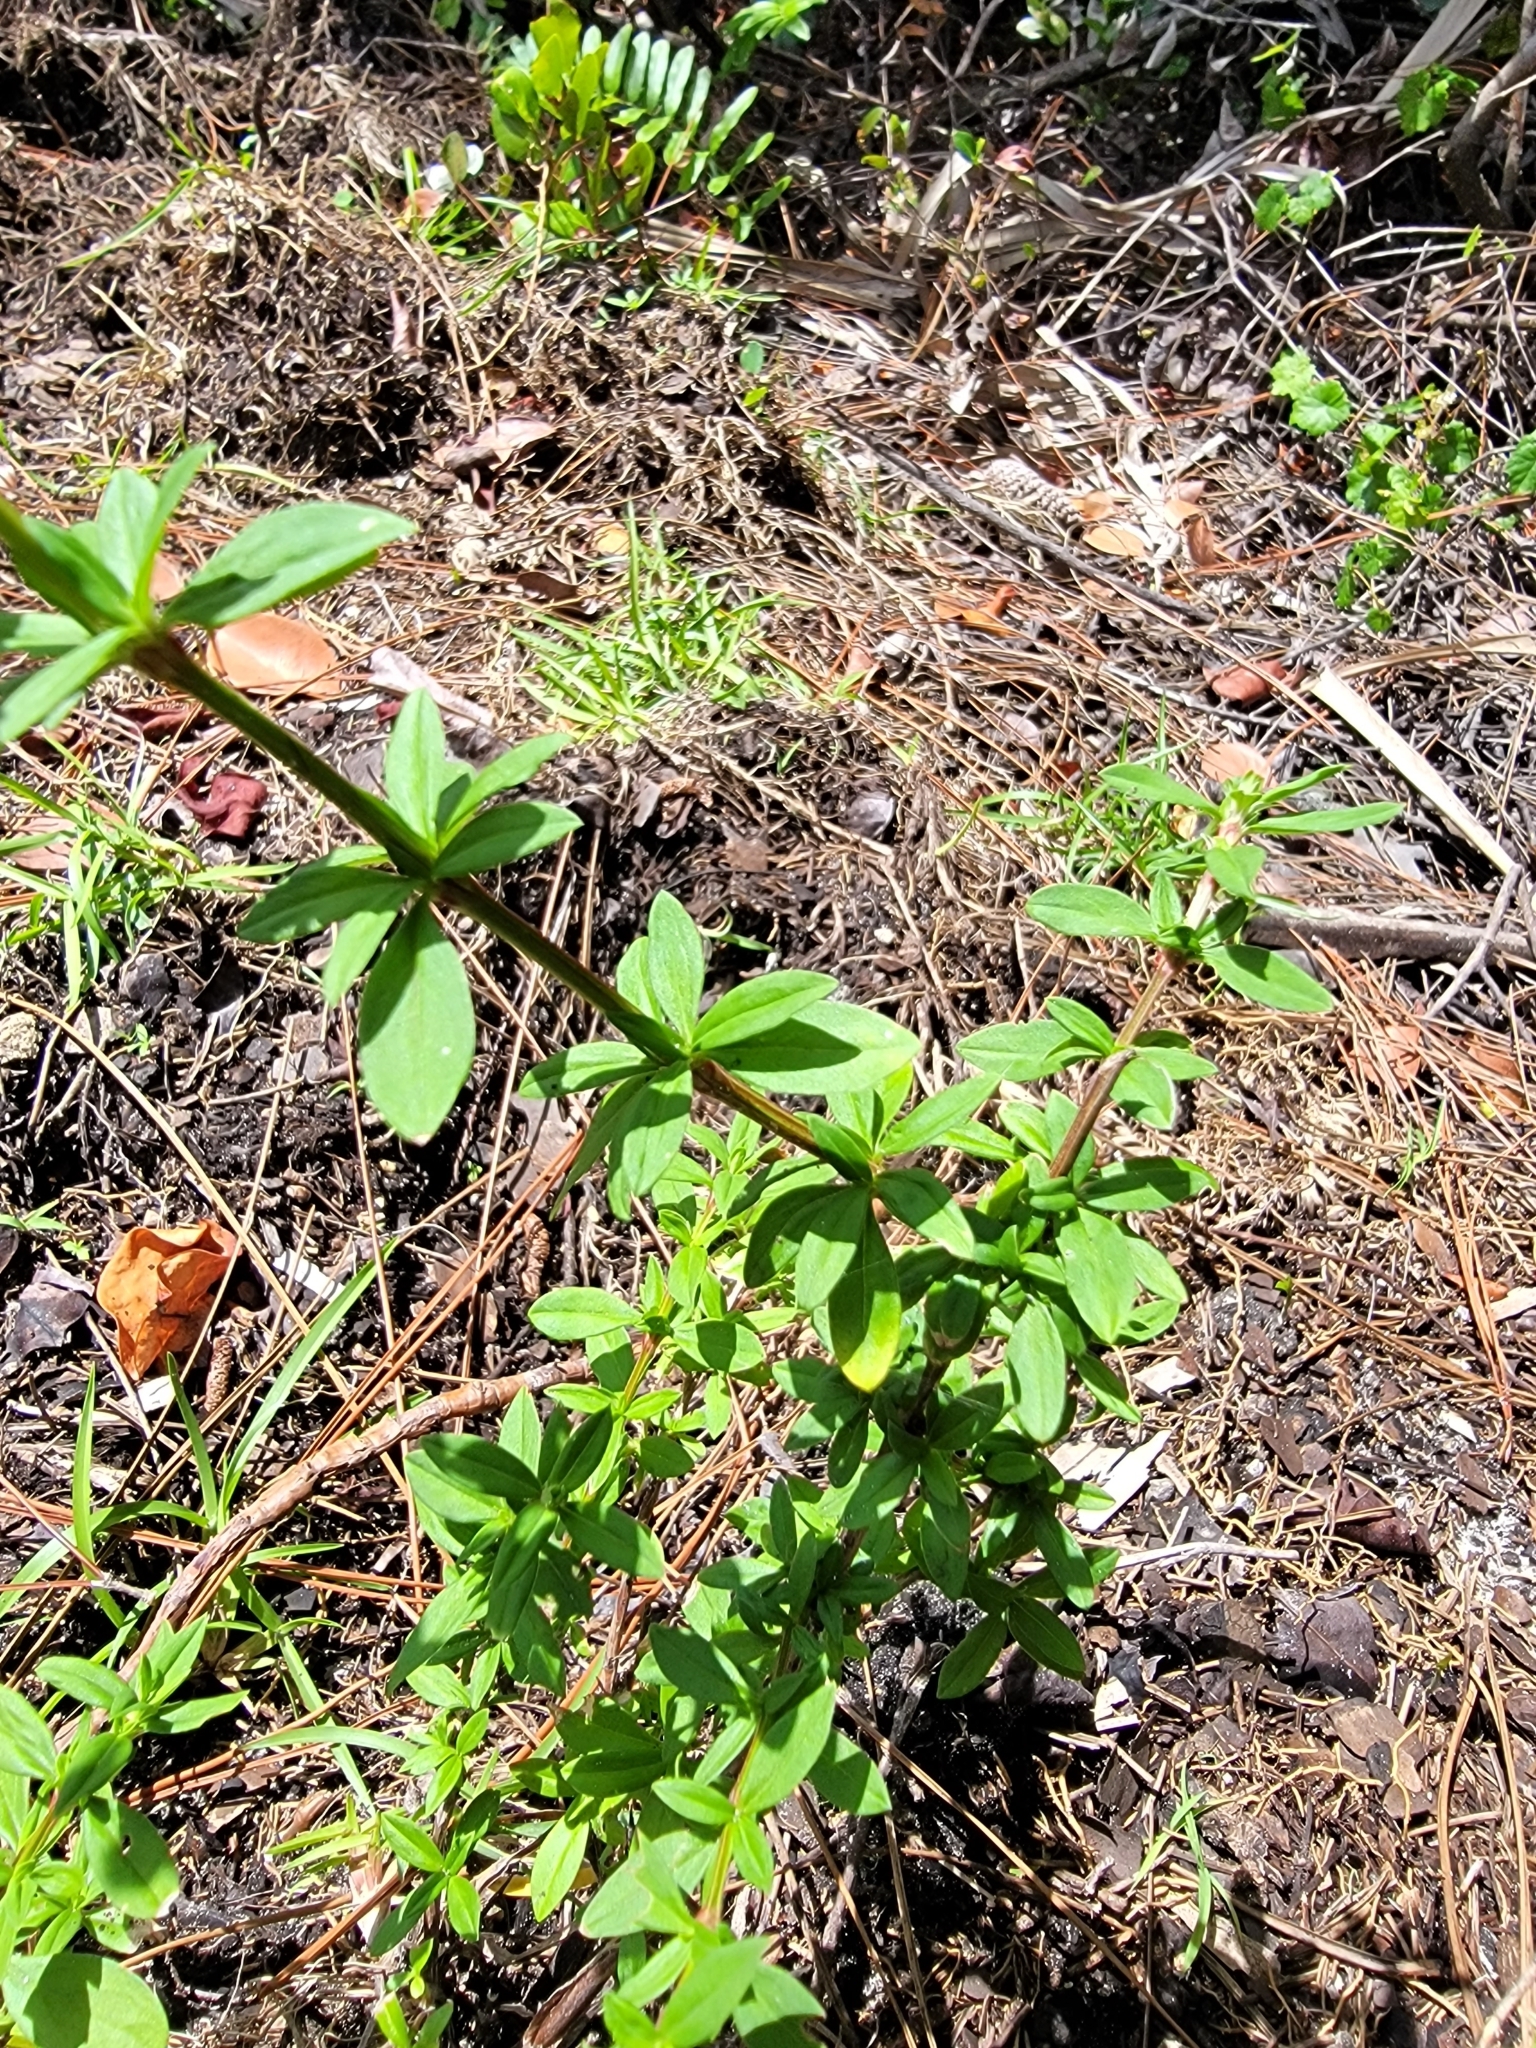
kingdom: Plantae
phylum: Tracheophyta
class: Magnoliopsida
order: Gentianales
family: Rubiaceae
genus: Spermacoce
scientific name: Spermacoce verticillata
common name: Shrubby false buttonweed
